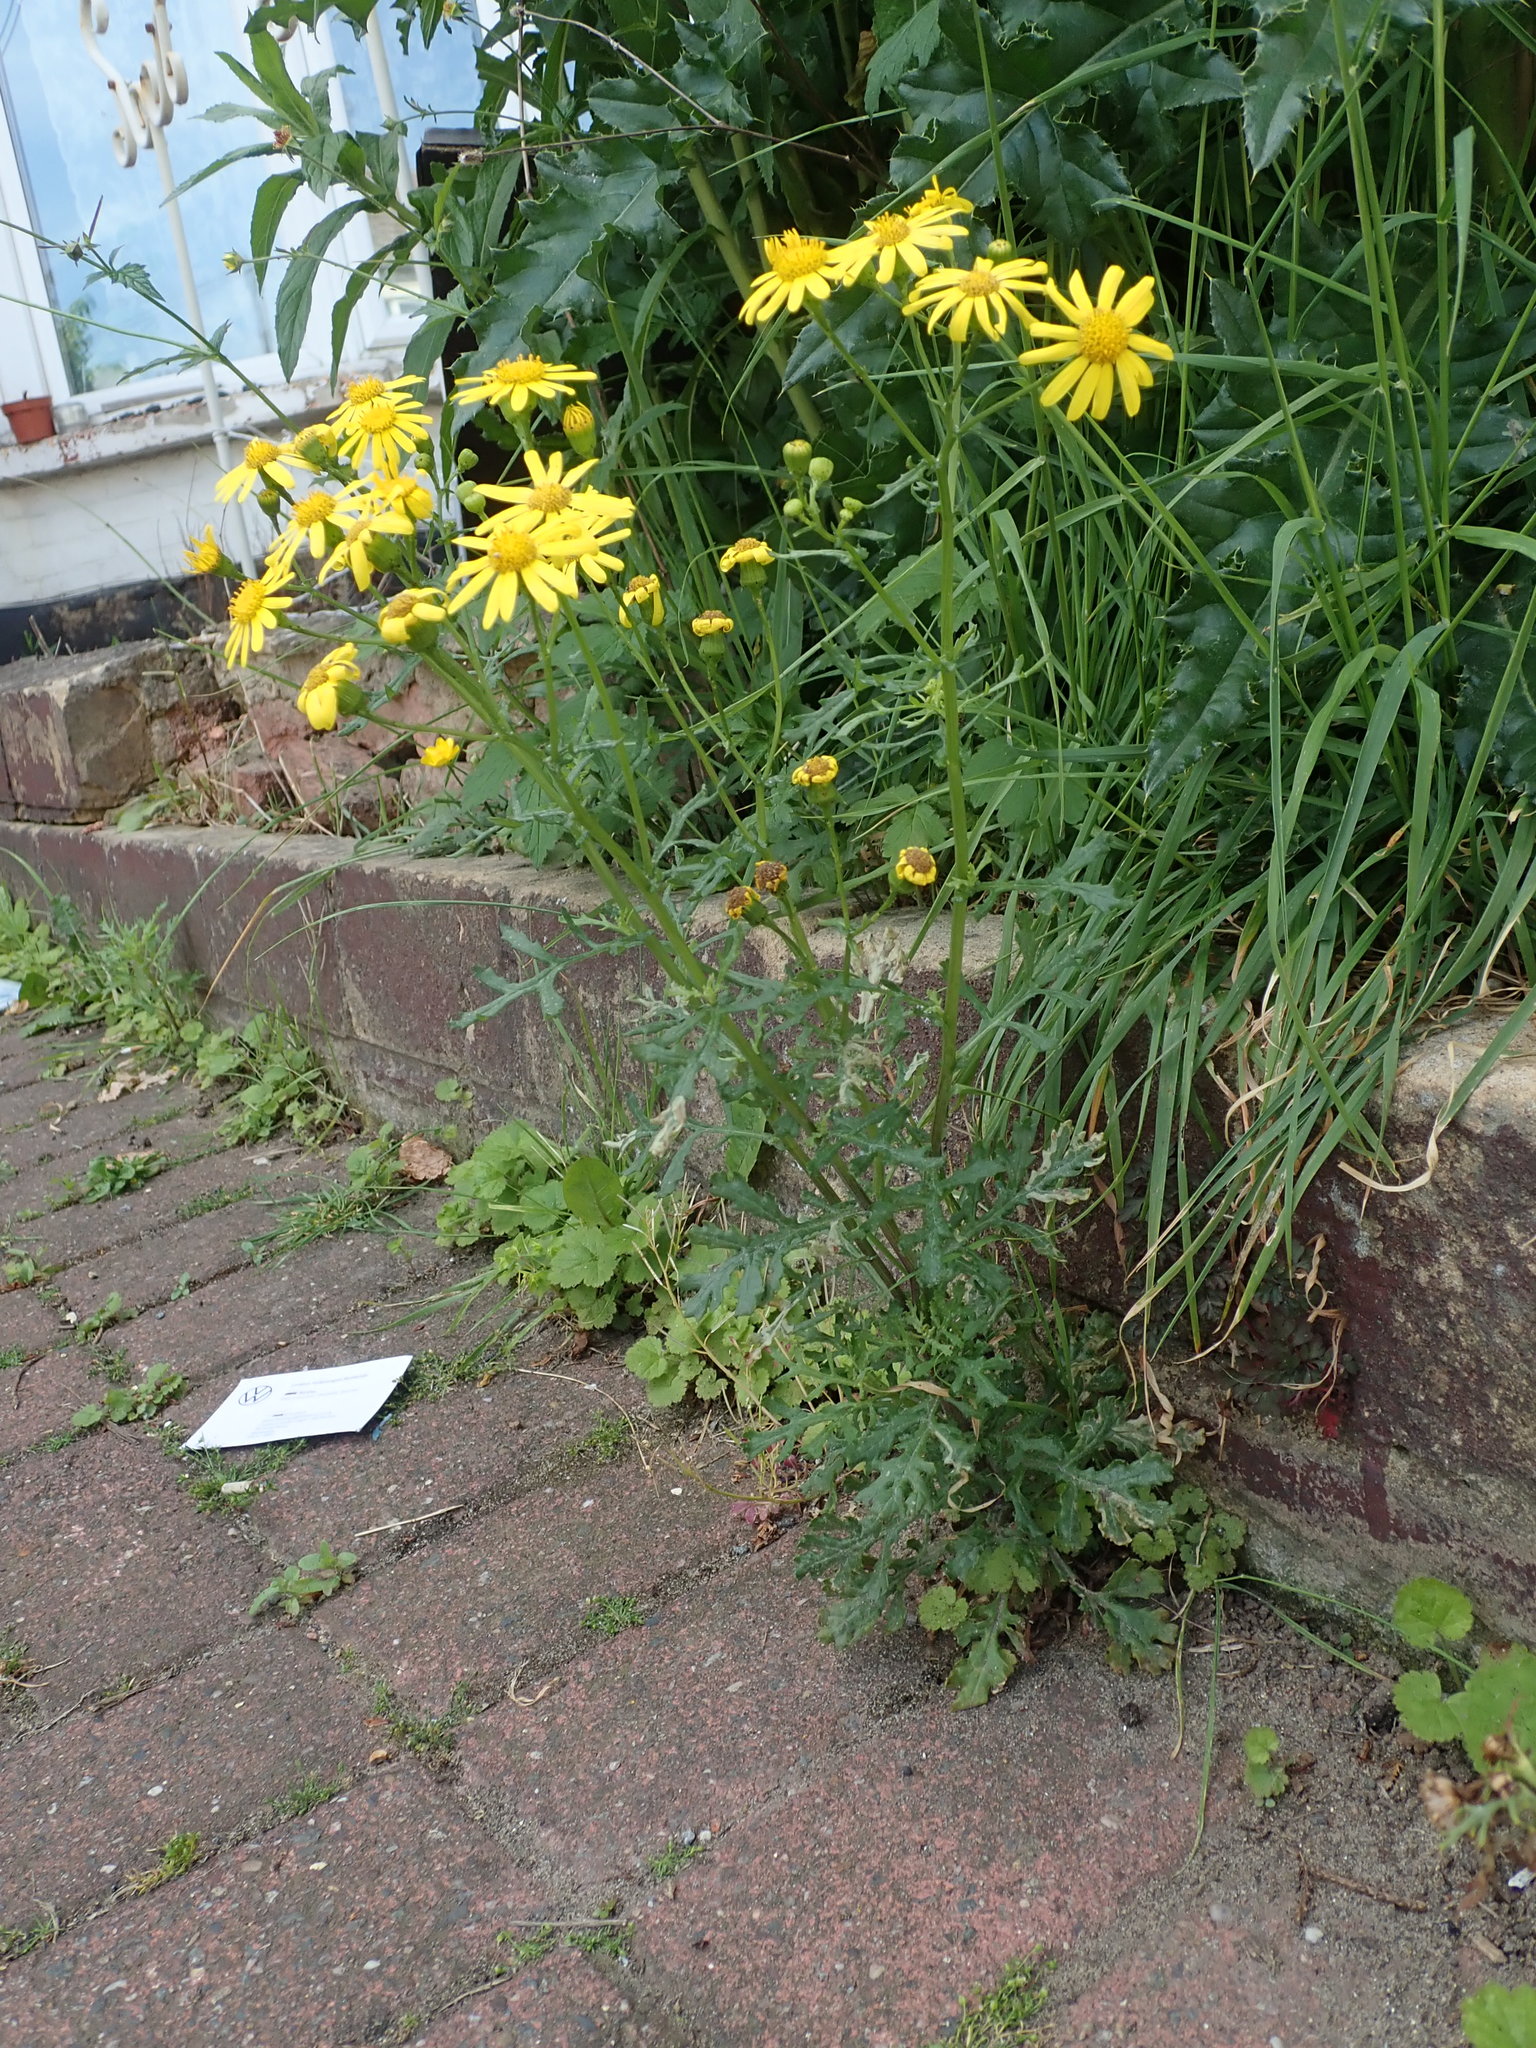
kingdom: Plantae
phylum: Tracheophyta
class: Magnoliopsida
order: Asterales
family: Asteraceae
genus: Senecio
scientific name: Senecio squalidus
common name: Oxford ragwort
